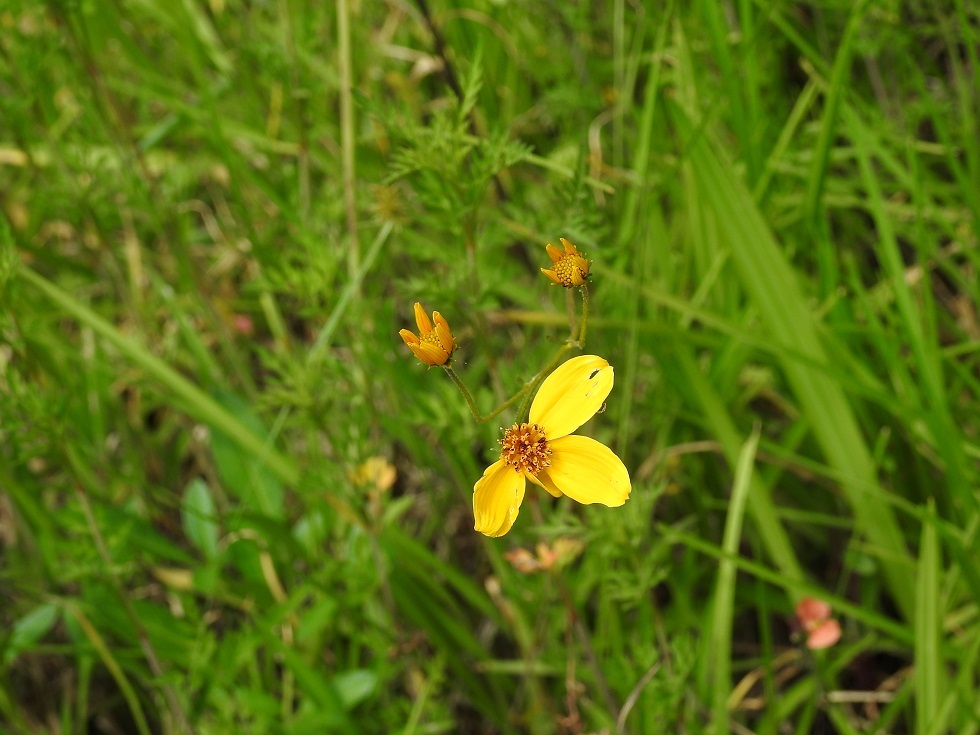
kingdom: Plantae
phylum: Tracheophyta
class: Magnoliopsida
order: Asterales
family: Asteraceae
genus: Bidens
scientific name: Bidens triplinervia
